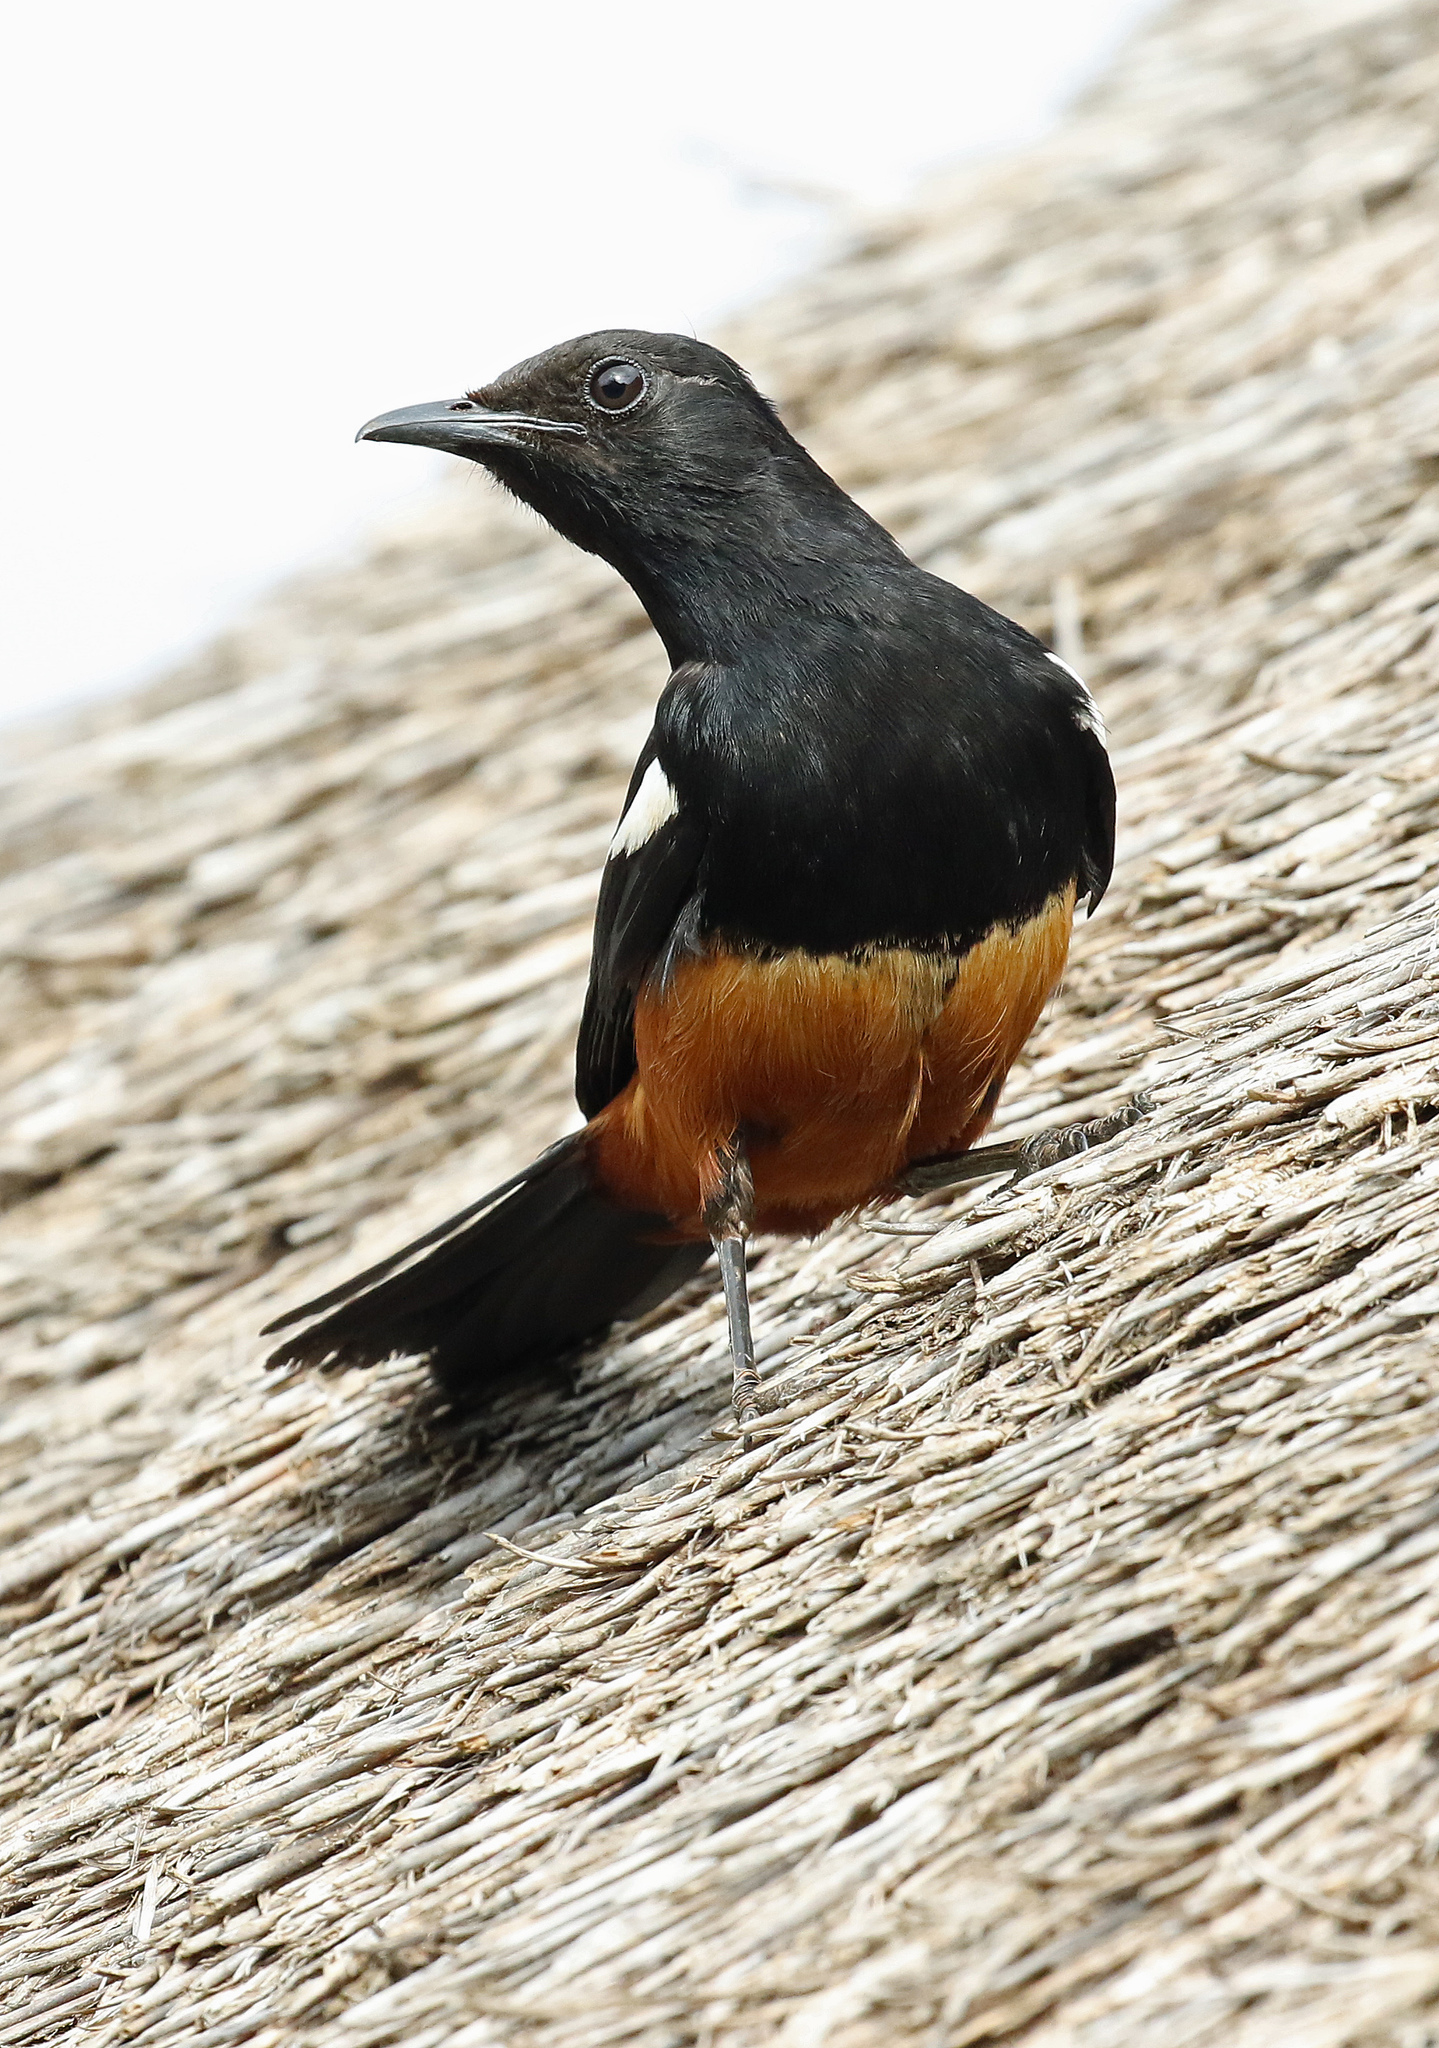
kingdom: Animalia
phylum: Chordata
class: Aves
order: Passeriformes
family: Muscicapidae
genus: Thamnolaea
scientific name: Thamnolaea cinnamomeiventris
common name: Mocking cliff chat
